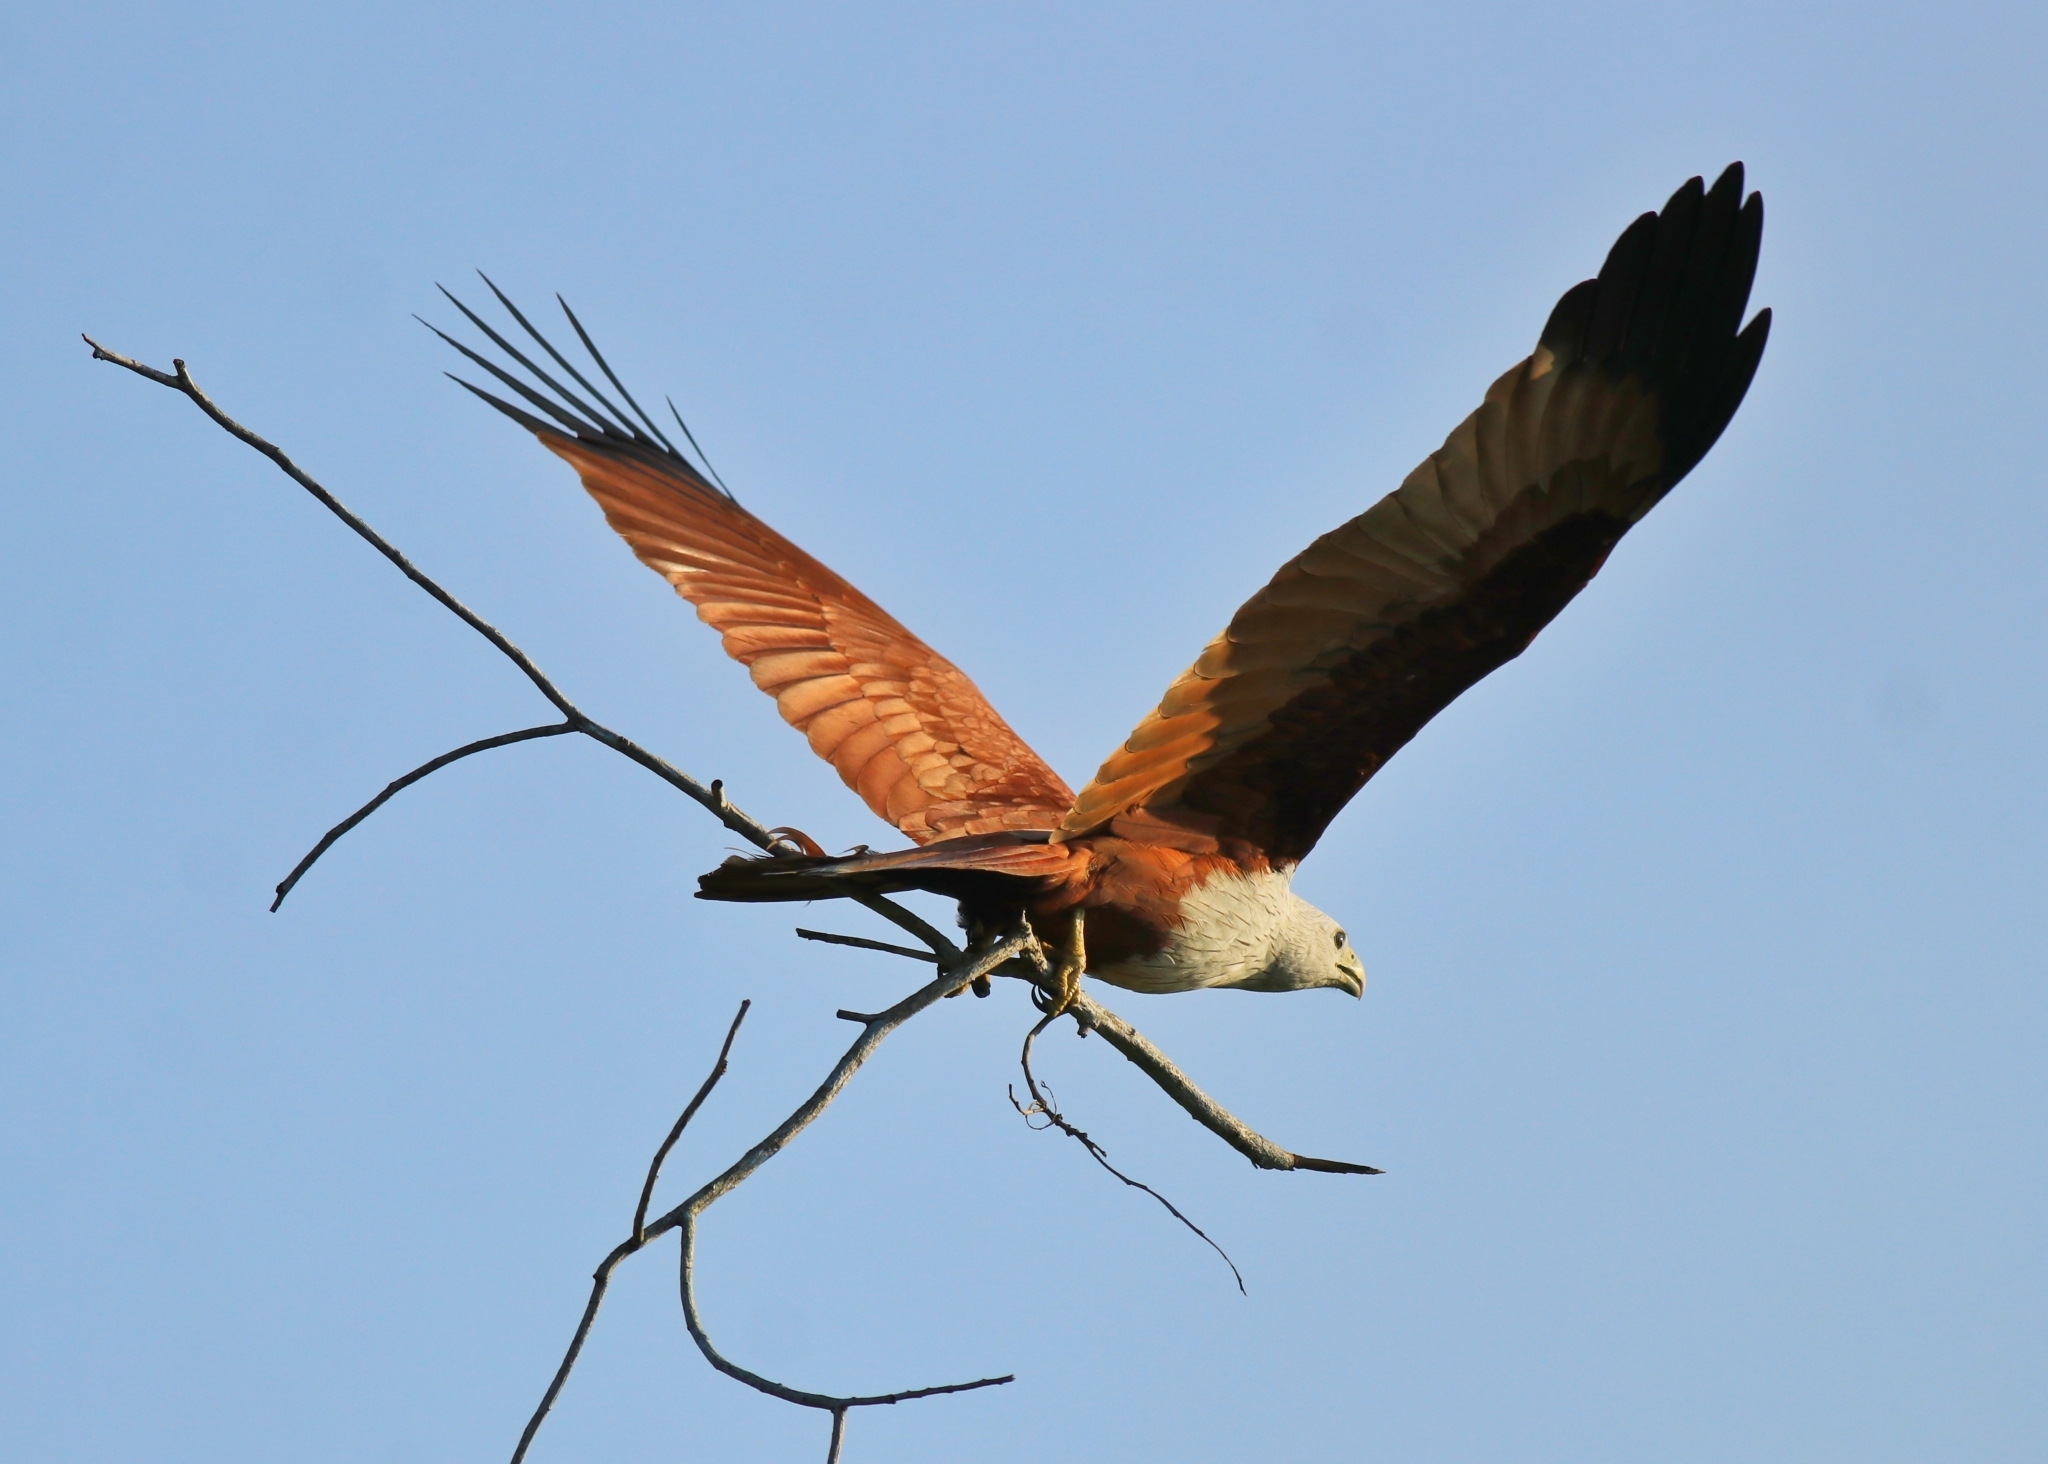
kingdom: Animalia
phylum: Chordata
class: Aves
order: Accipitriformes
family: Accipitridae
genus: Haliastur
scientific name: Haliastur indus
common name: Brahminy kite
